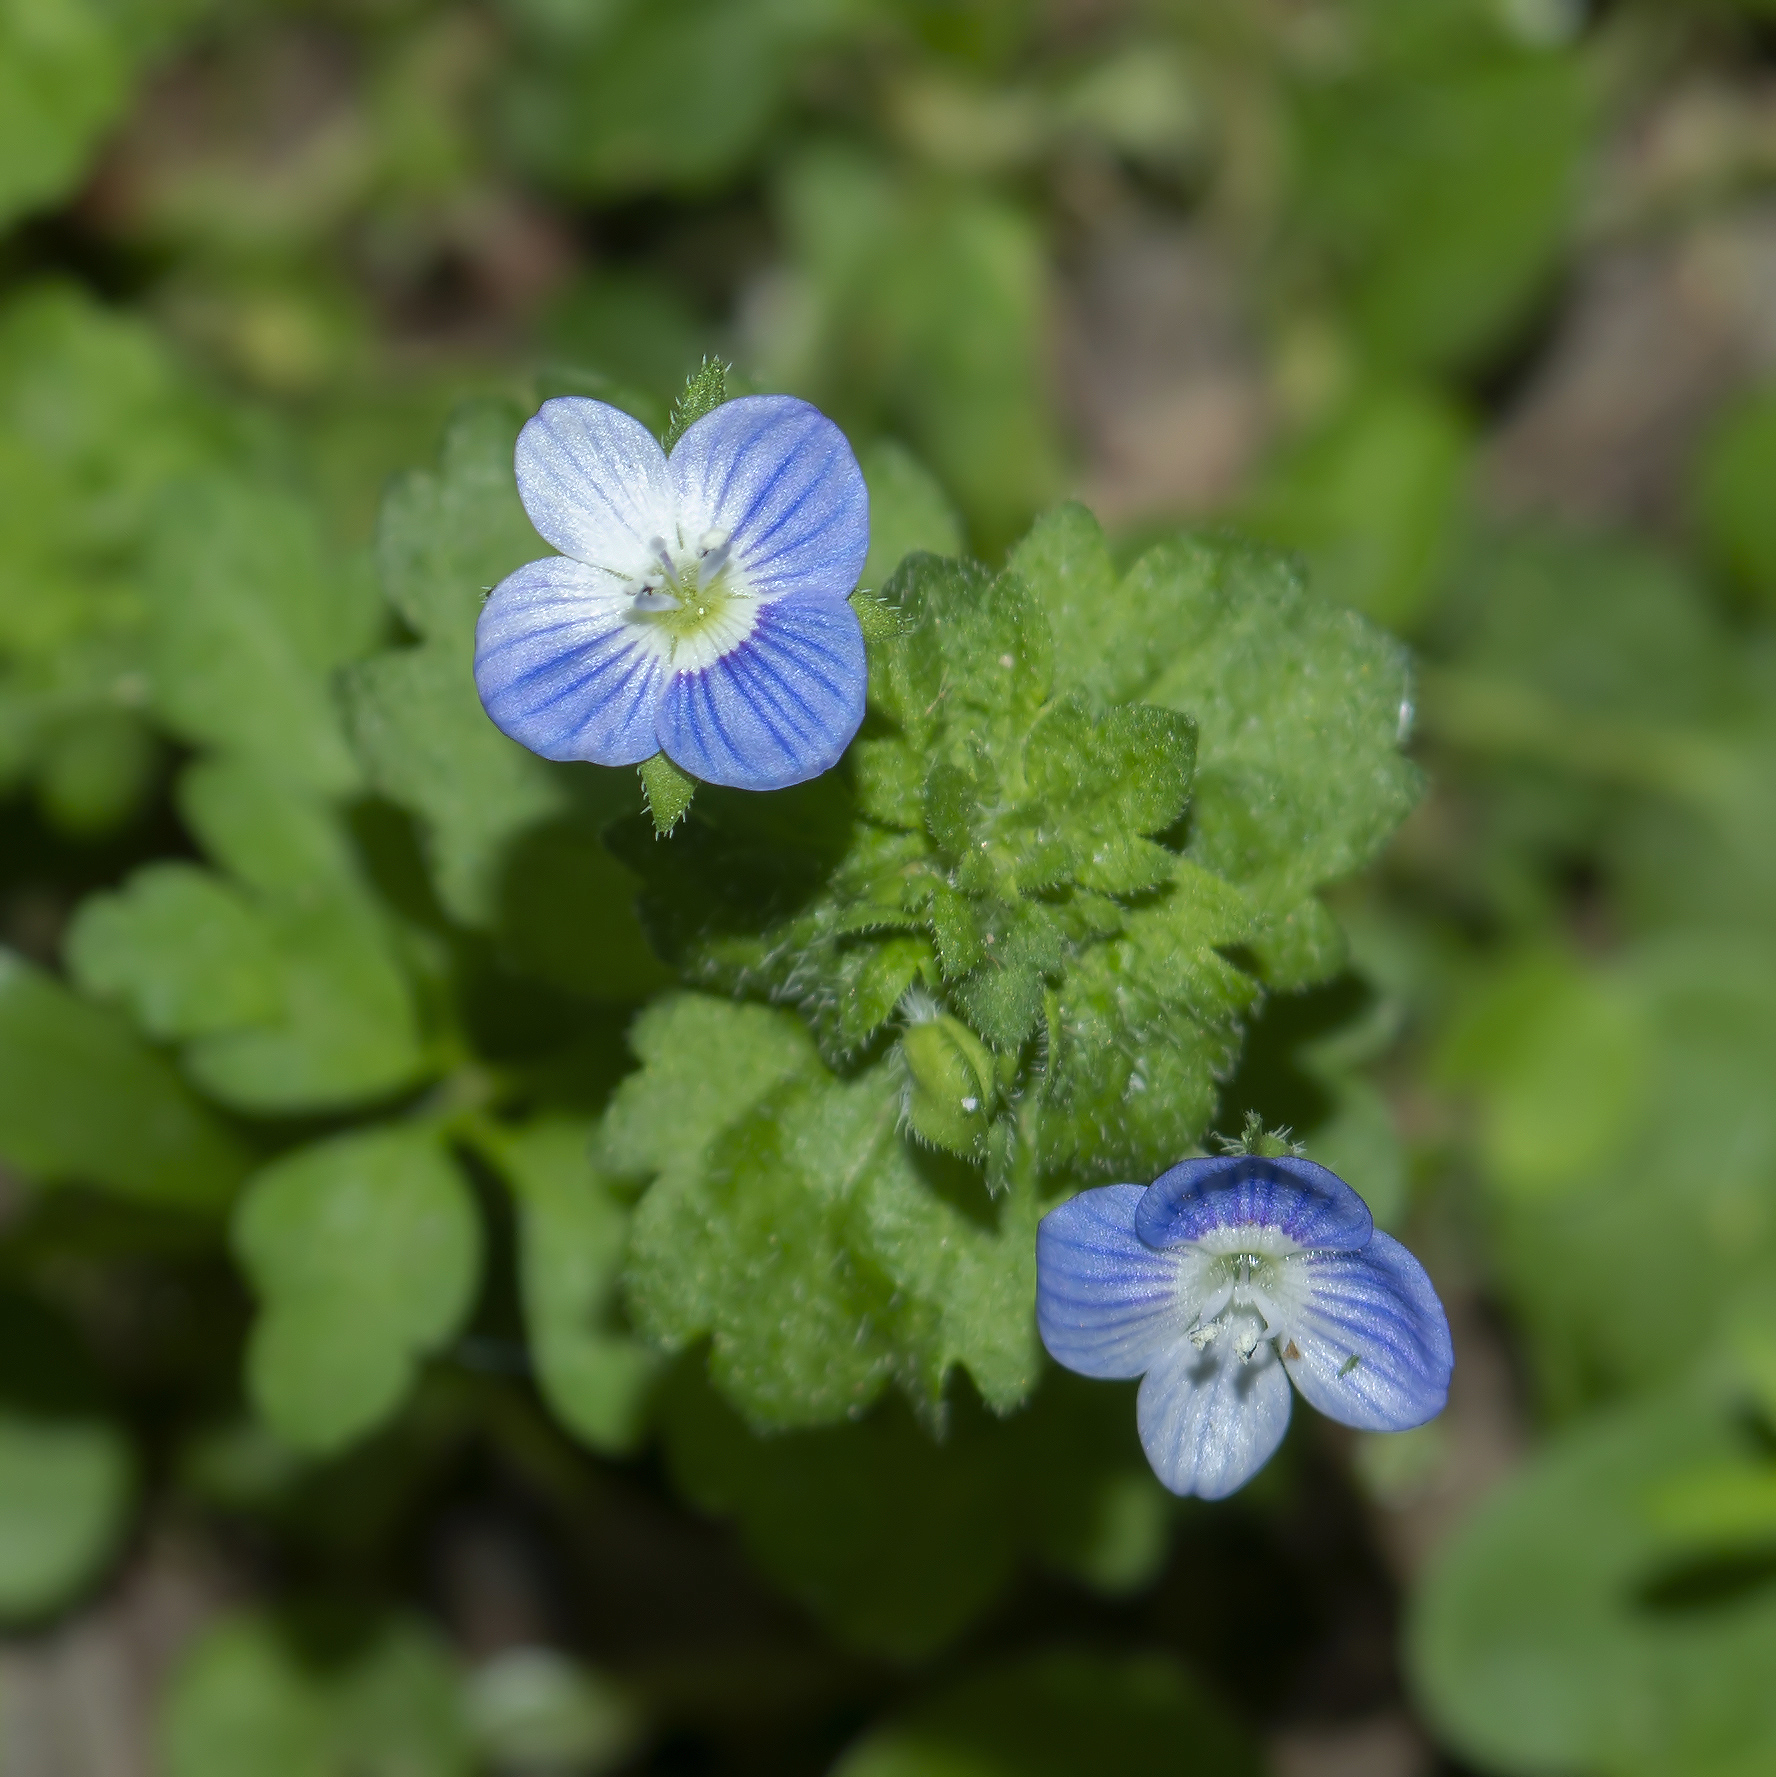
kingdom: Plantae
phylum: Tracheophyta
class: Magnoliopsida
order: Lamiales
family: Plantaginaceae
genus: Veronica
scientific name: Veronica persica
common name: Common field-speedwell
